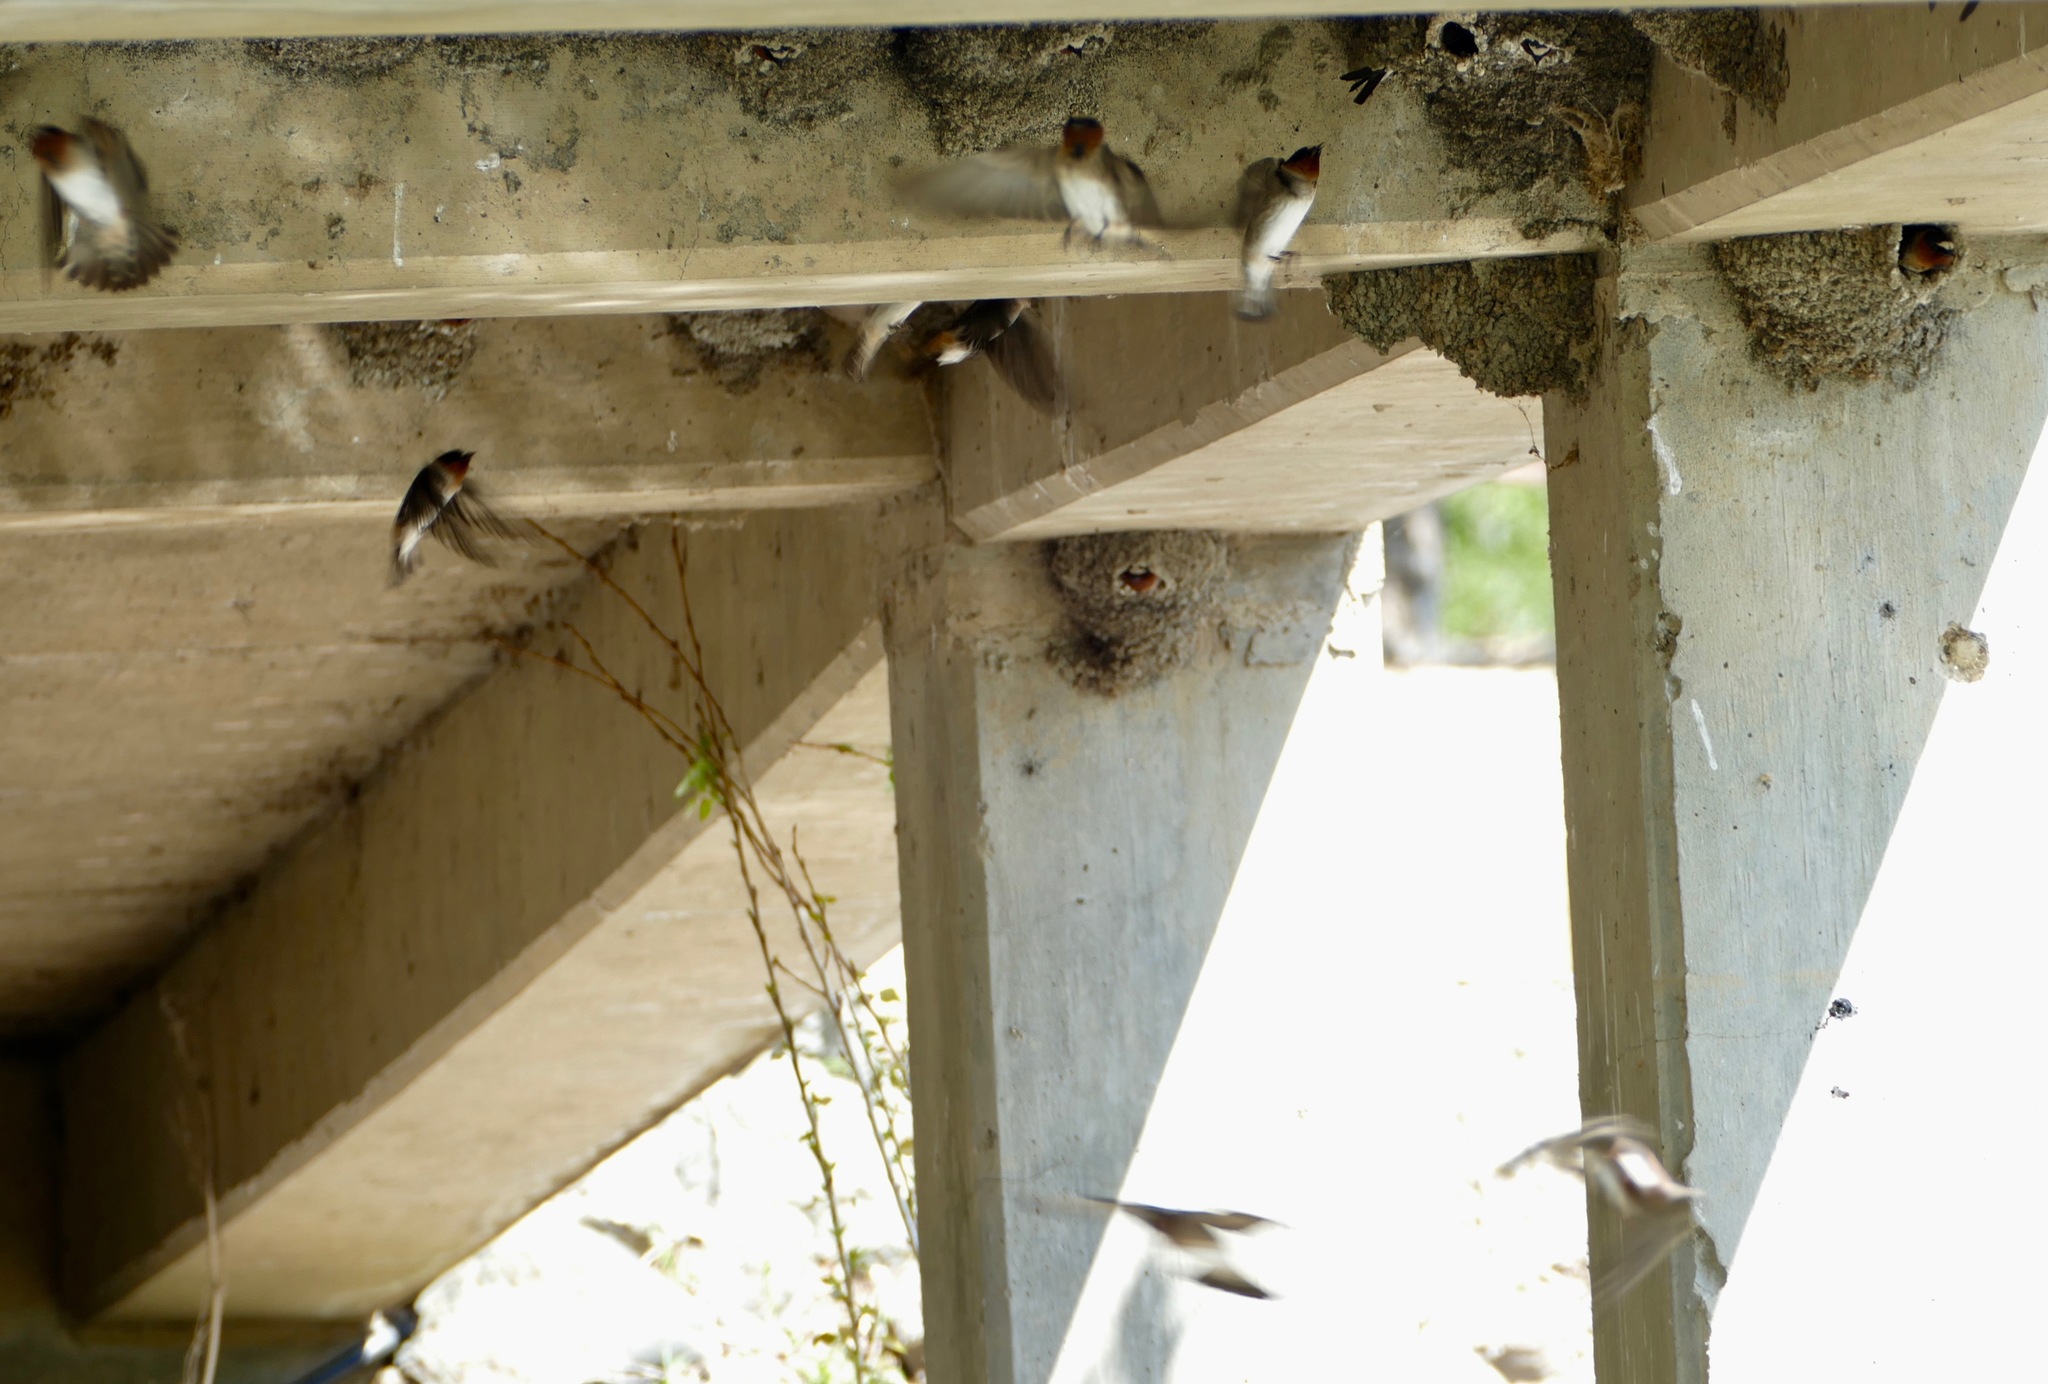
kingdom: Animalia
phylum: Chordata
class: Aves
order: Passeriformes
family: Hirundinidae
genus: Petrochelidon
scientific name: Petrochelidon pyrrhonota
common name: American cliff swallow
